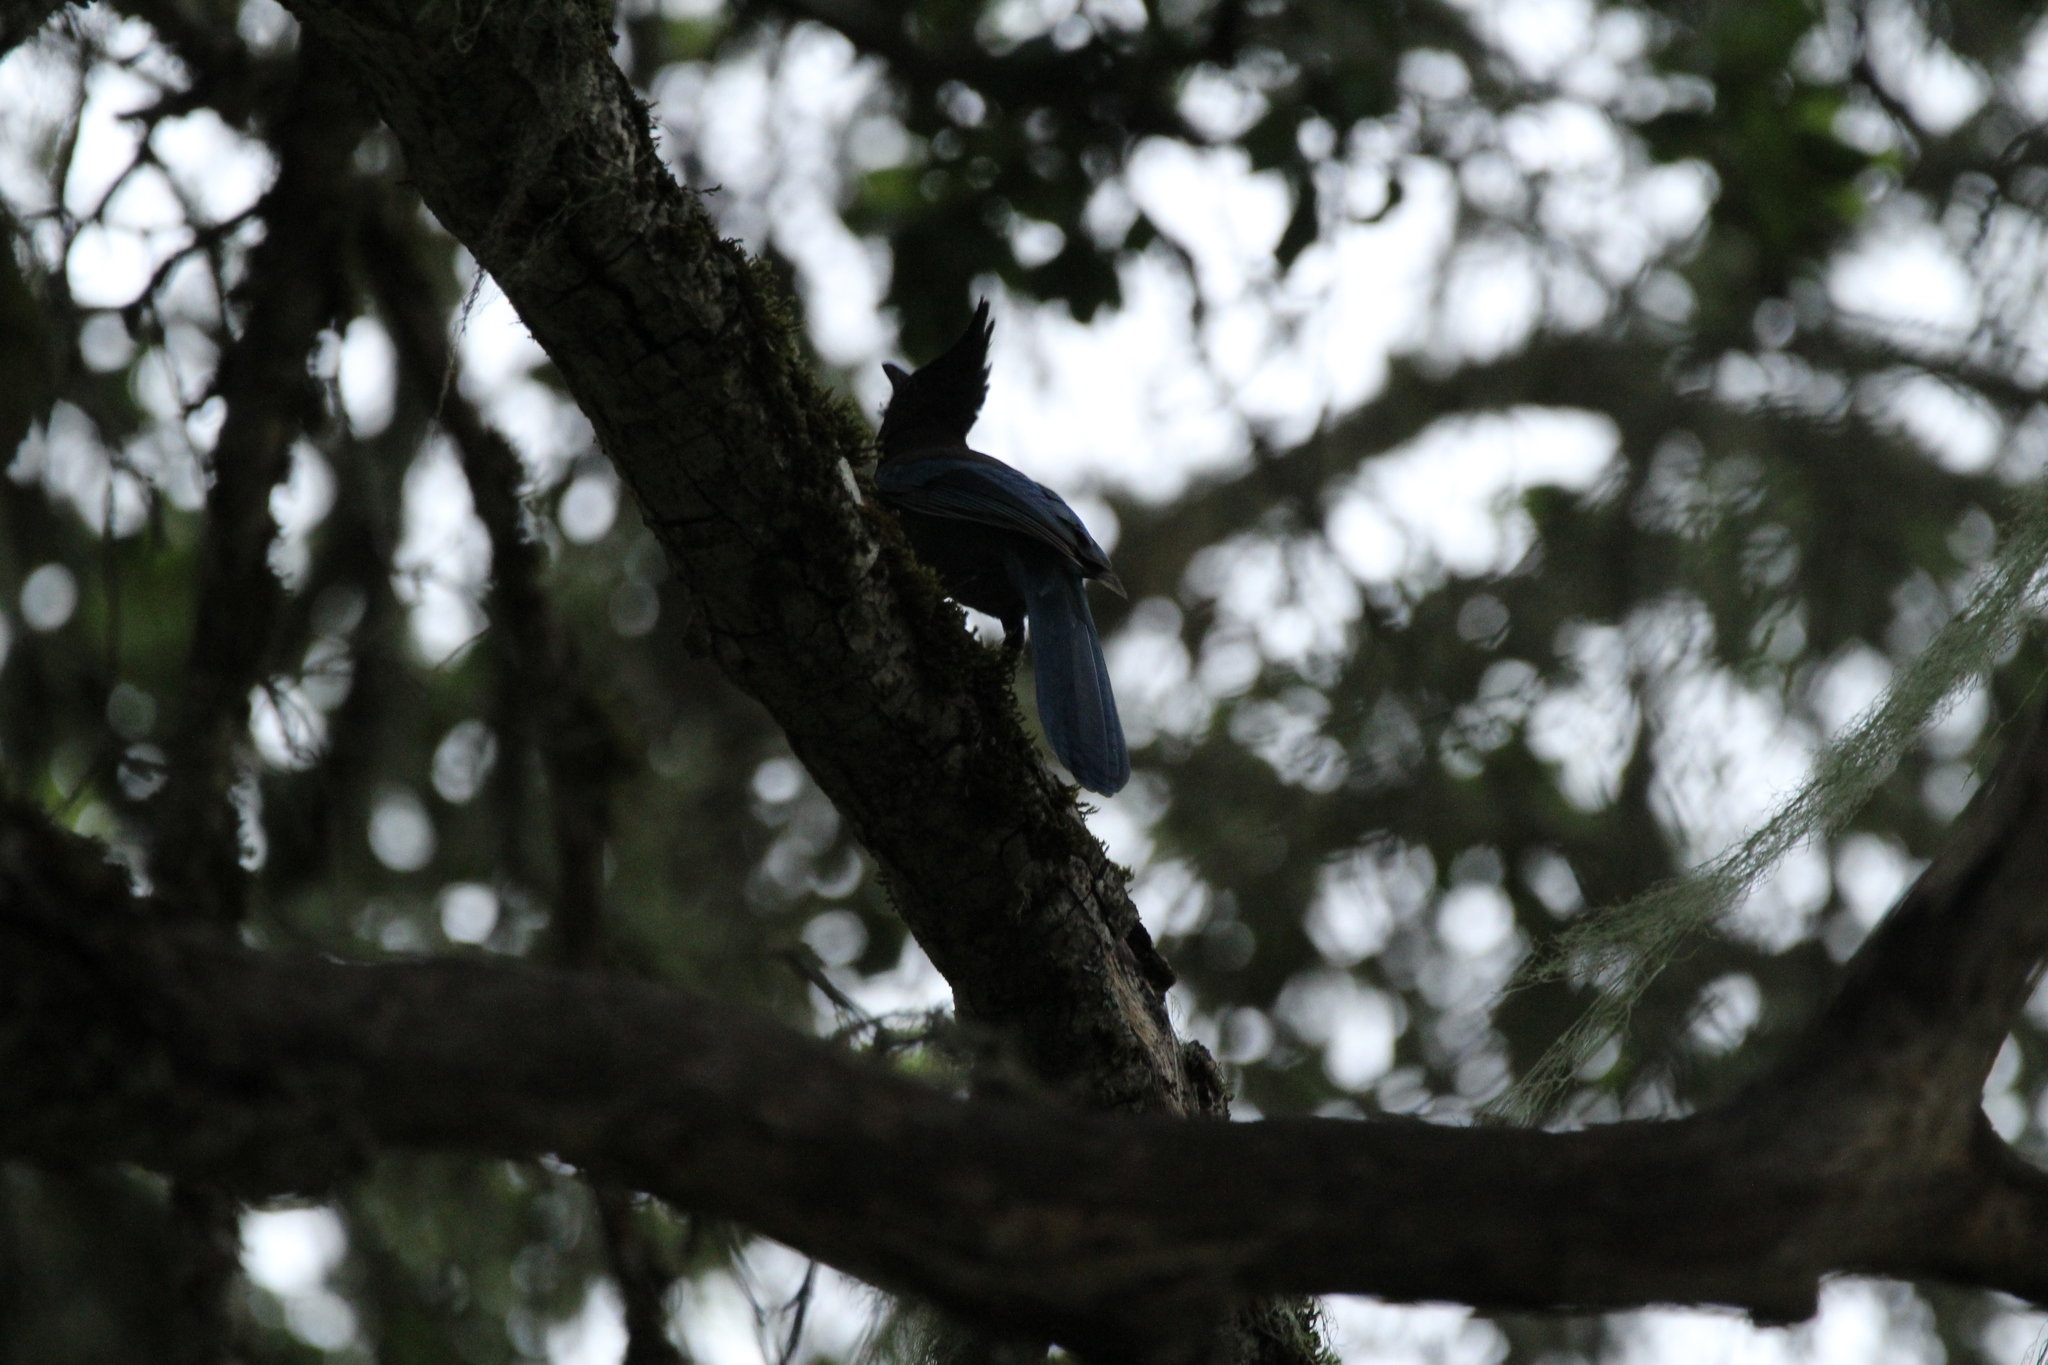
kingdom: Animalia
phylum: Chordata
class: Aves
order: Passeriformes
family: Corvidae
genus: Cyanocitta
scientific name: Cyanocitta stelleri
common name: Steller's jay
